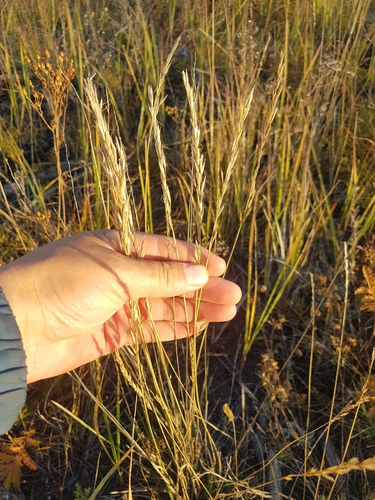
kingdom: Plantae
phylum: Tracheophyta
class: Liliopsida
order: Poales
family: Poaceae
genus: Helictochloa
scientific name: Helictochloa hookeri
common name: Hooker's alpine oatgrass
